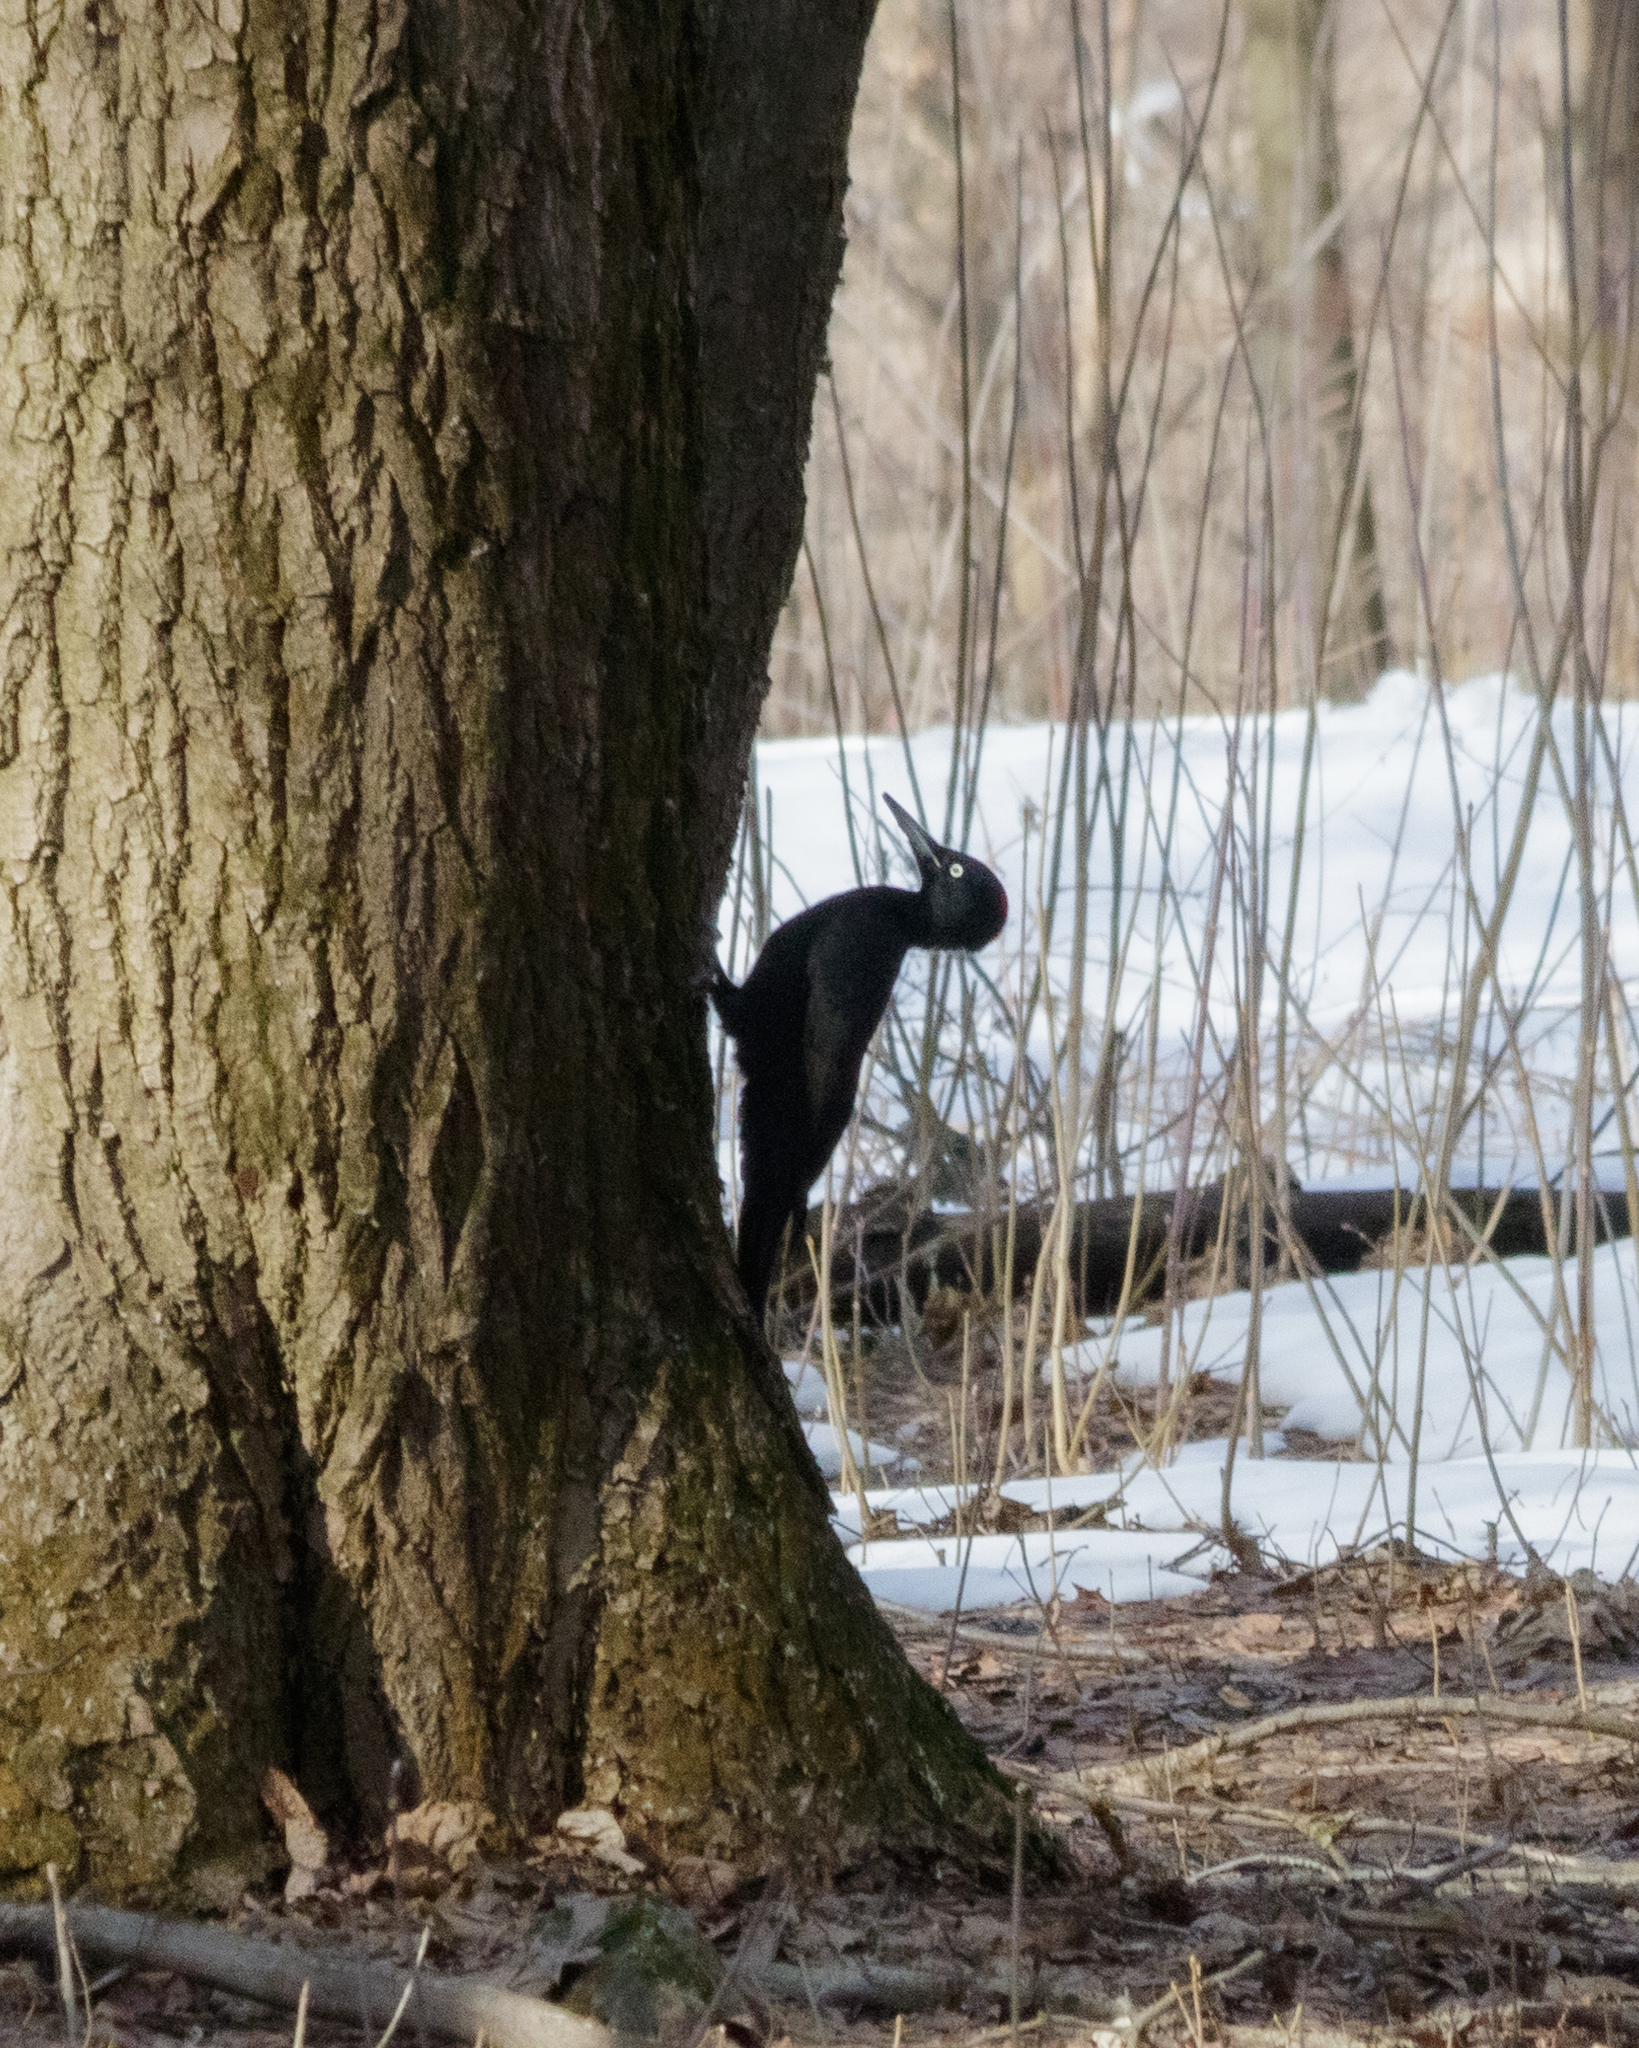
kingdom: Animalia
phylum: Chordata
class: Aves
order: Piciformes
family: Picidae
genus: Dryocopus
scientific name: Dryocopus martius
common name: Black woodpecker
